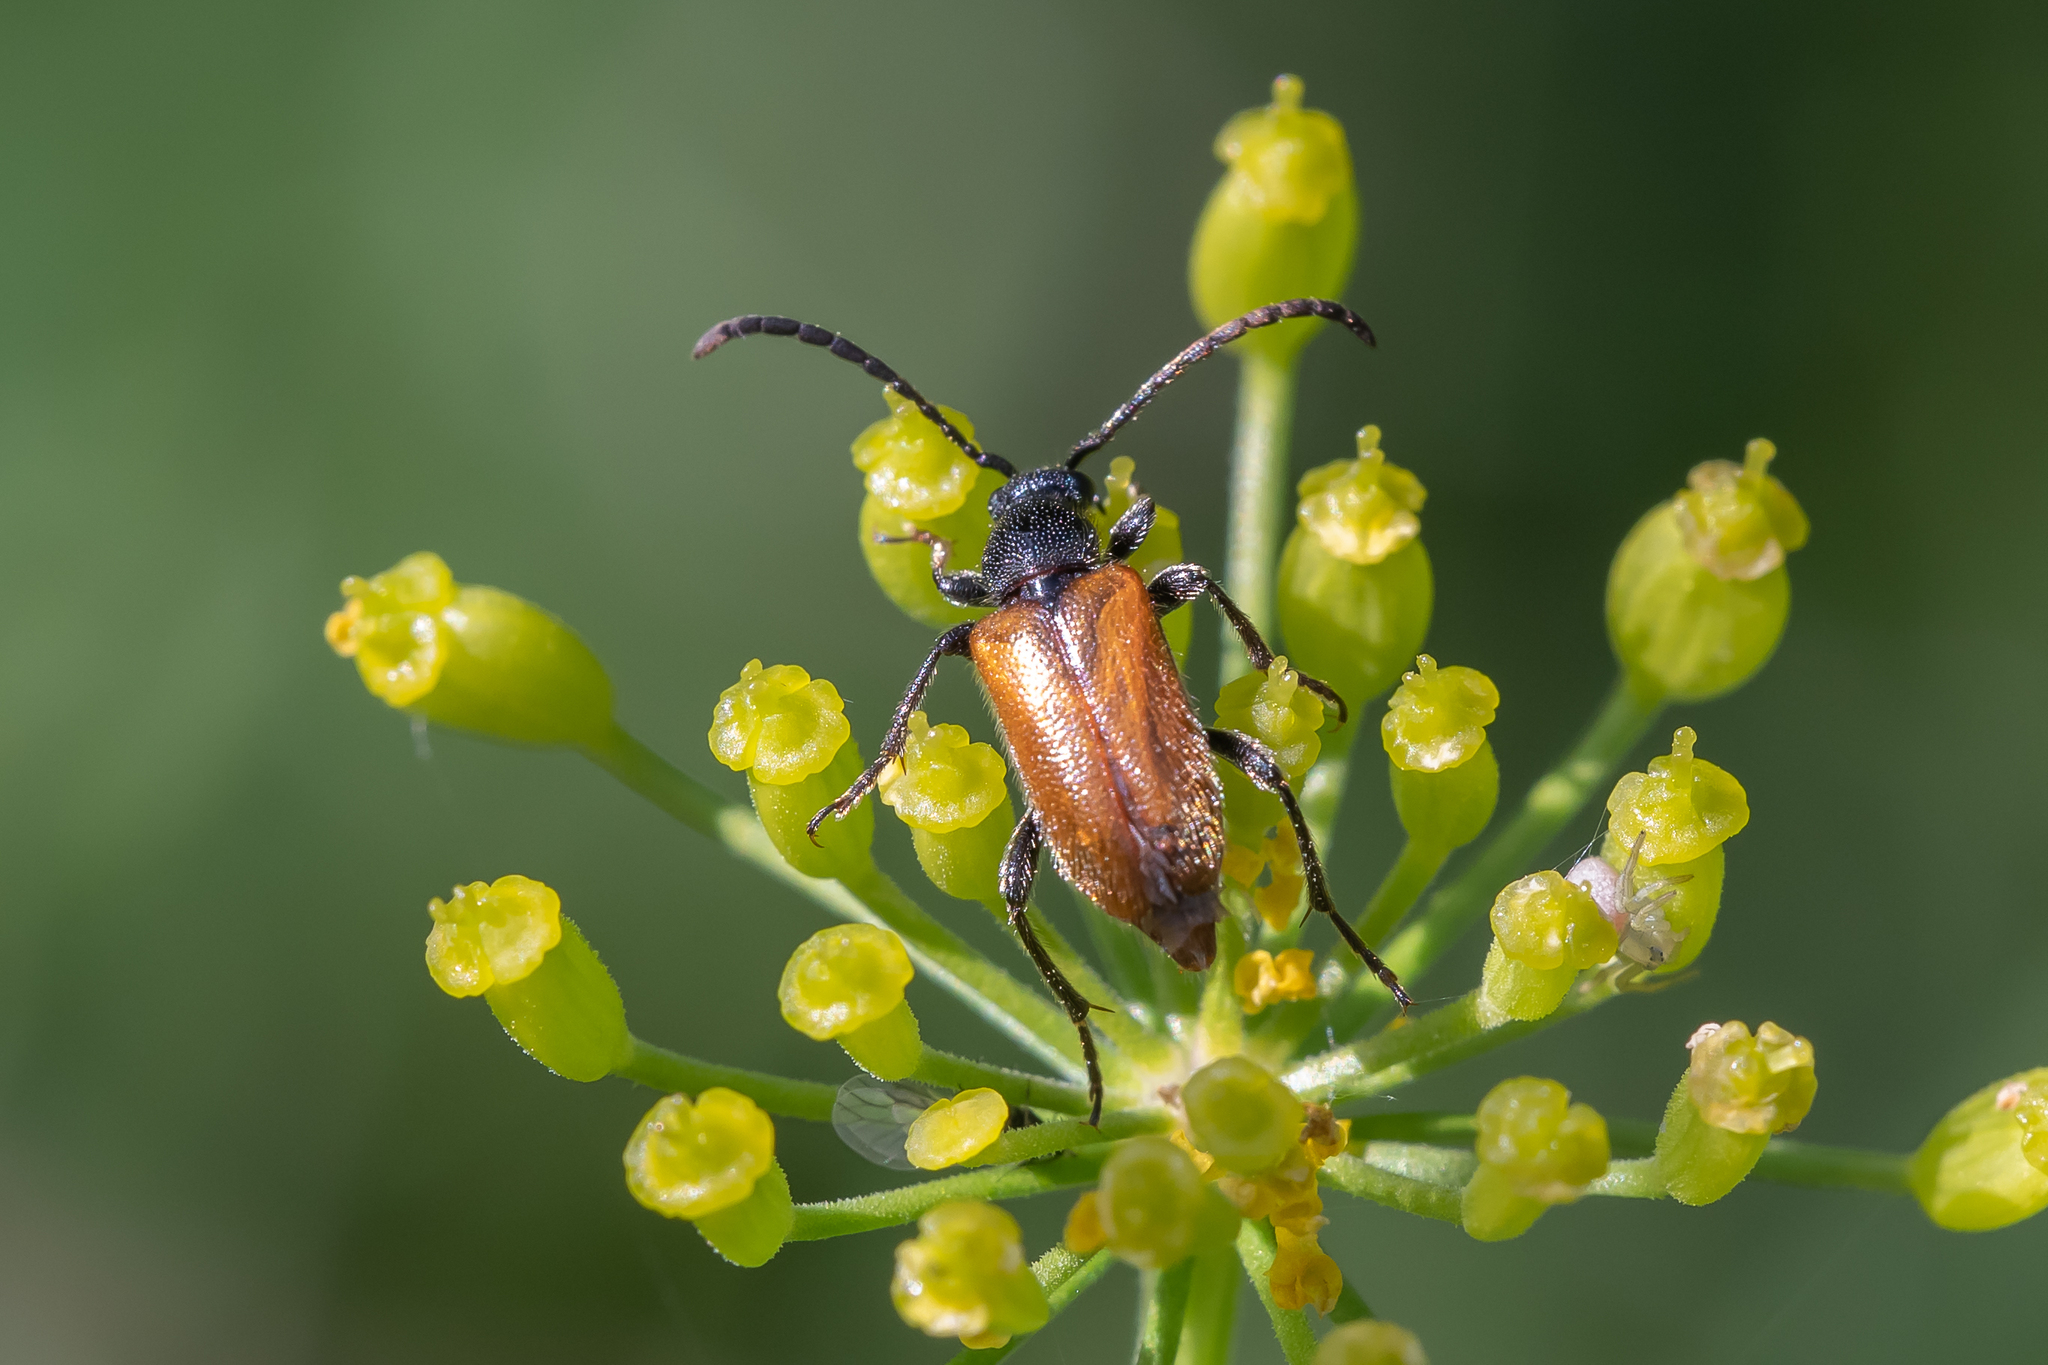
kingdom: Animalia
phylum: Arthropoda
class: Insecta
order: Coleoptera
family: Cerambycidae
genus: Pseudovadonia
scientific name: Pseudovadonia livida
